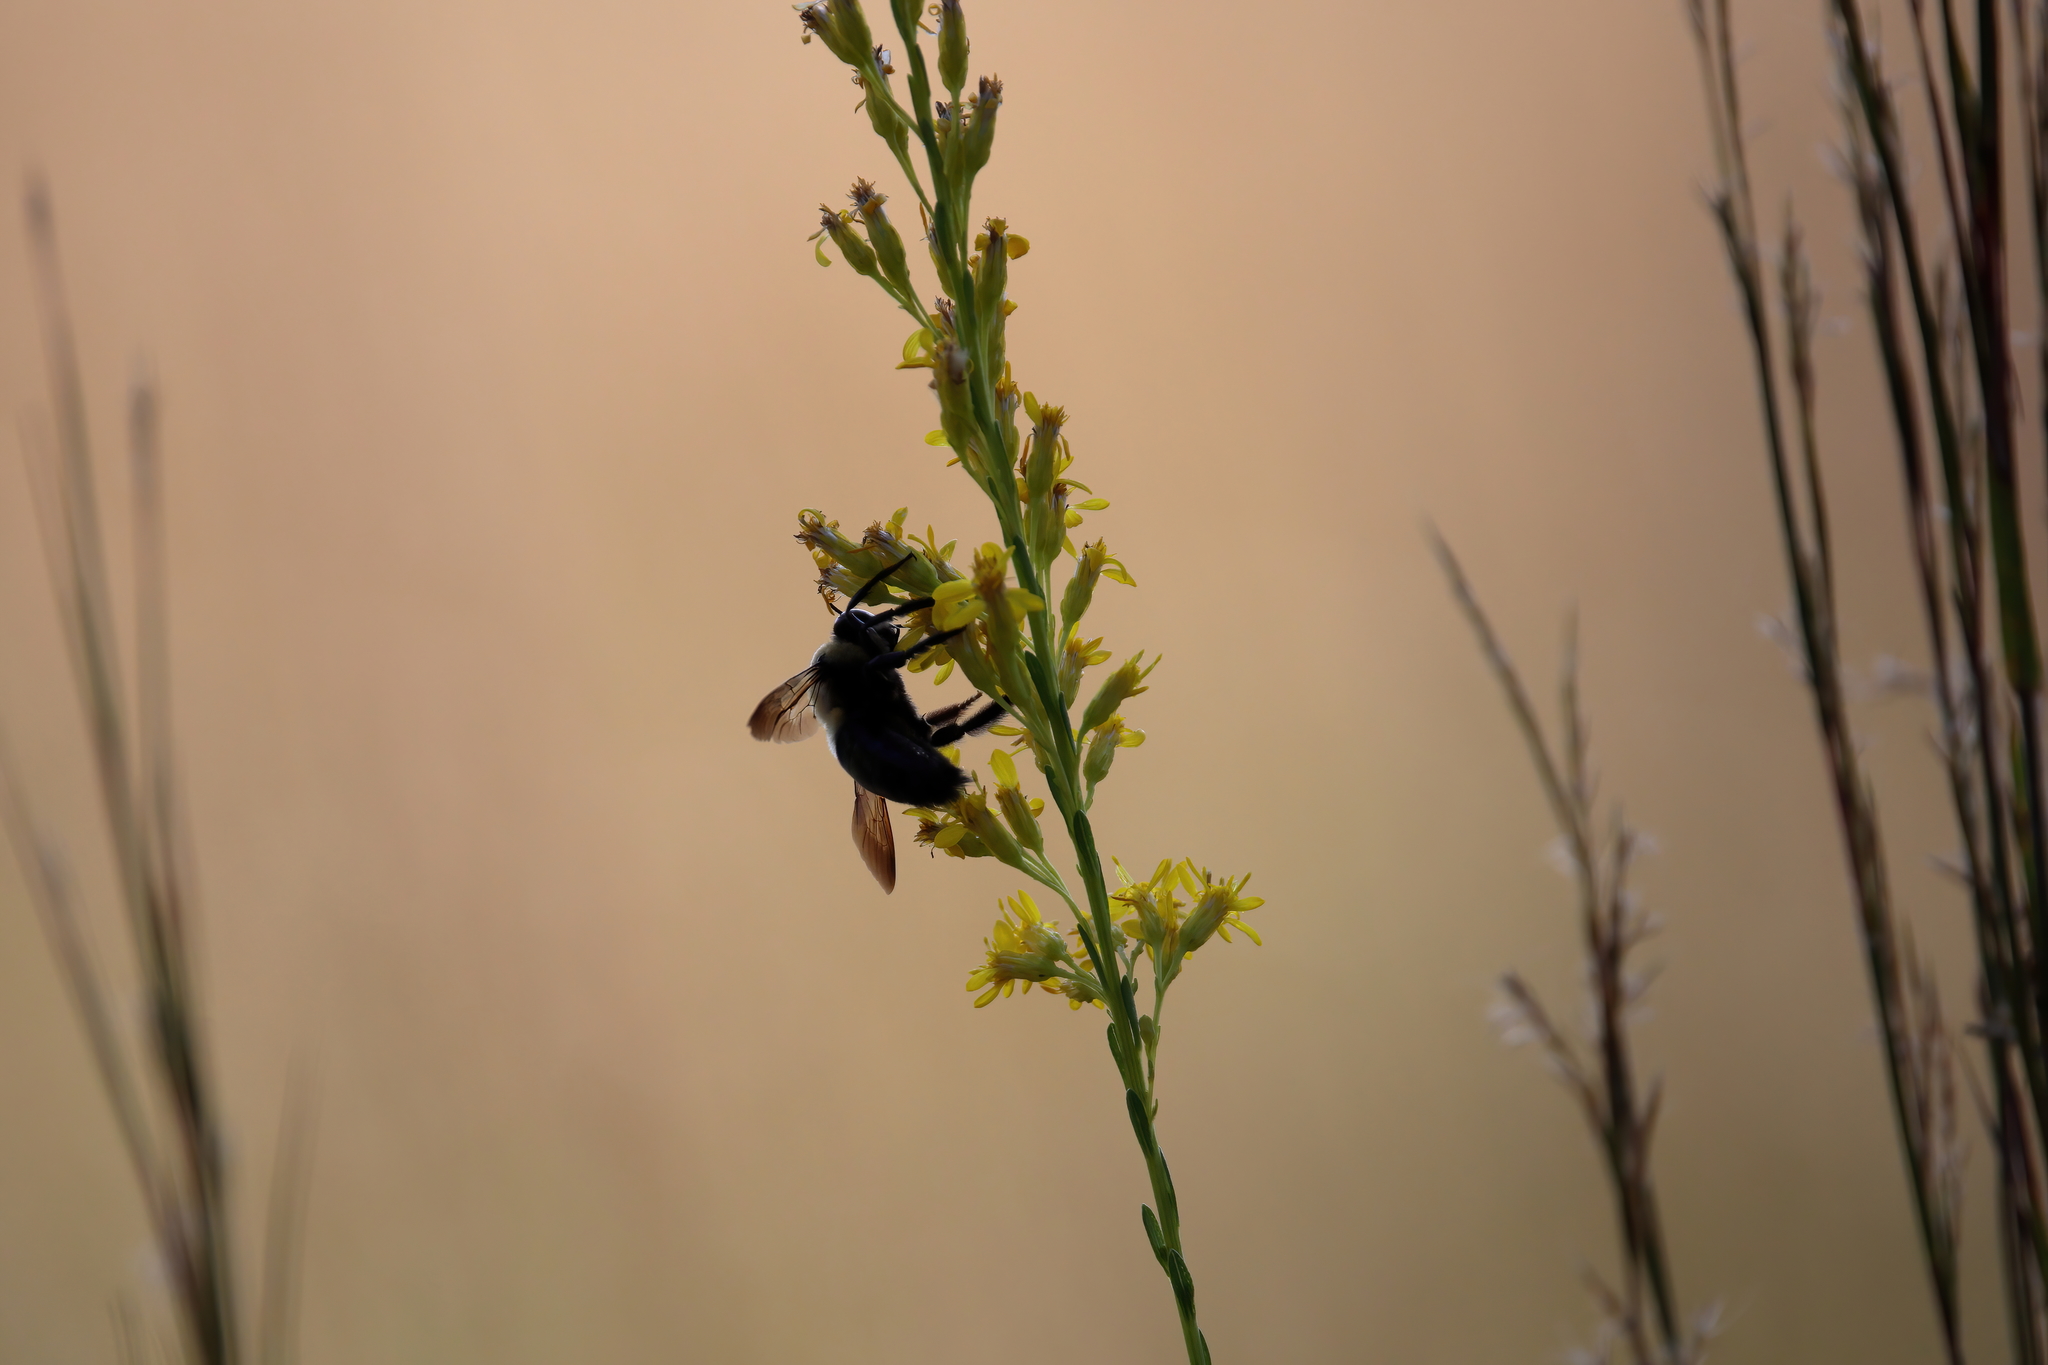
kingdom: Animalia
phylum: Arthropoda
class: Insecta
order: Hymenoptera
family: Apidae
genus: Xylocopa
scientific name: Xylocopa virginica
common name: Carpenter bee
